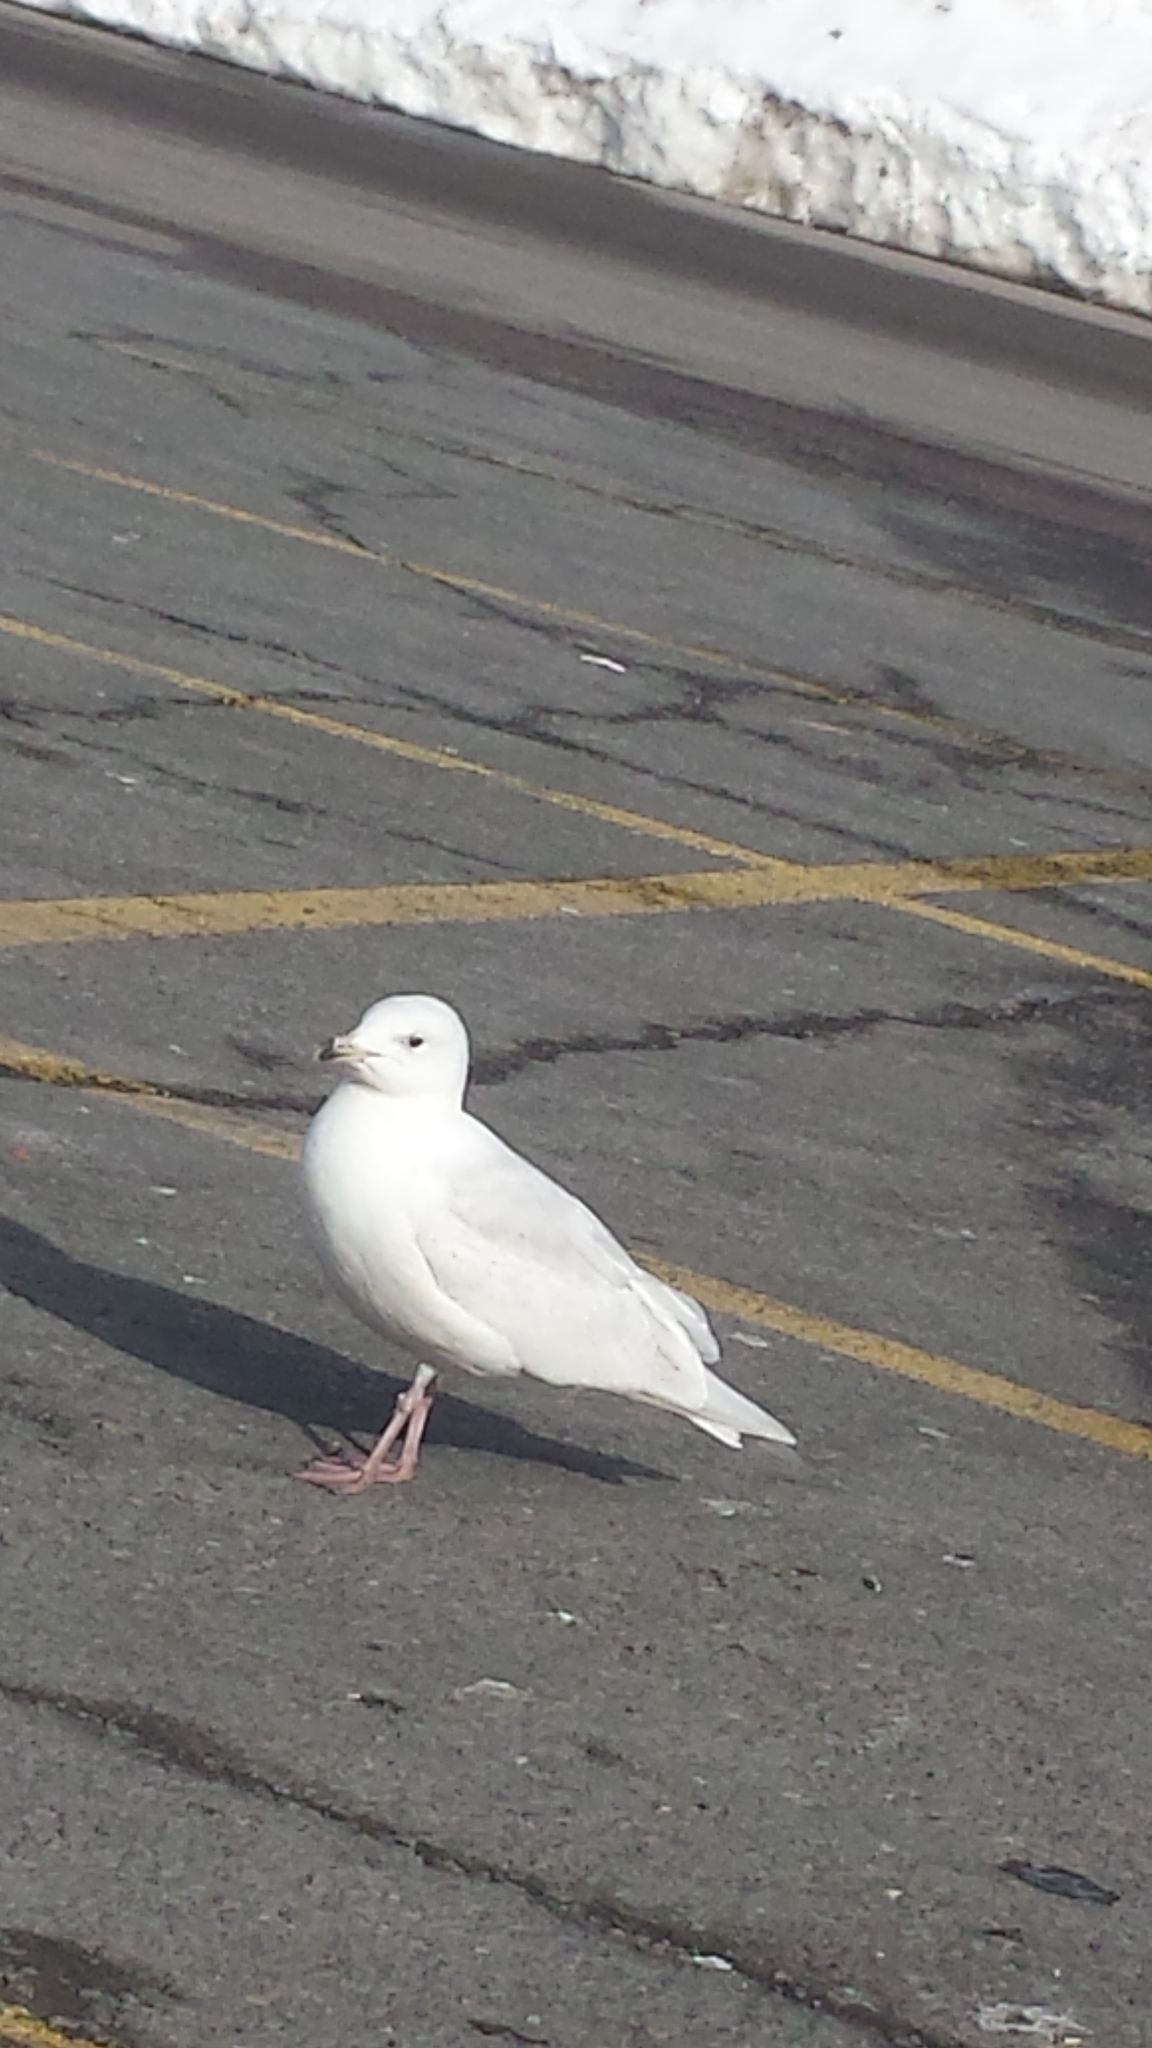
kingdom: Animalia
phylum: Chordata
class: Aves
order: Charadriiformes
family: Laridae
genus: Larus
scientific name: Larus glaucoides
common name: Iceland gull
